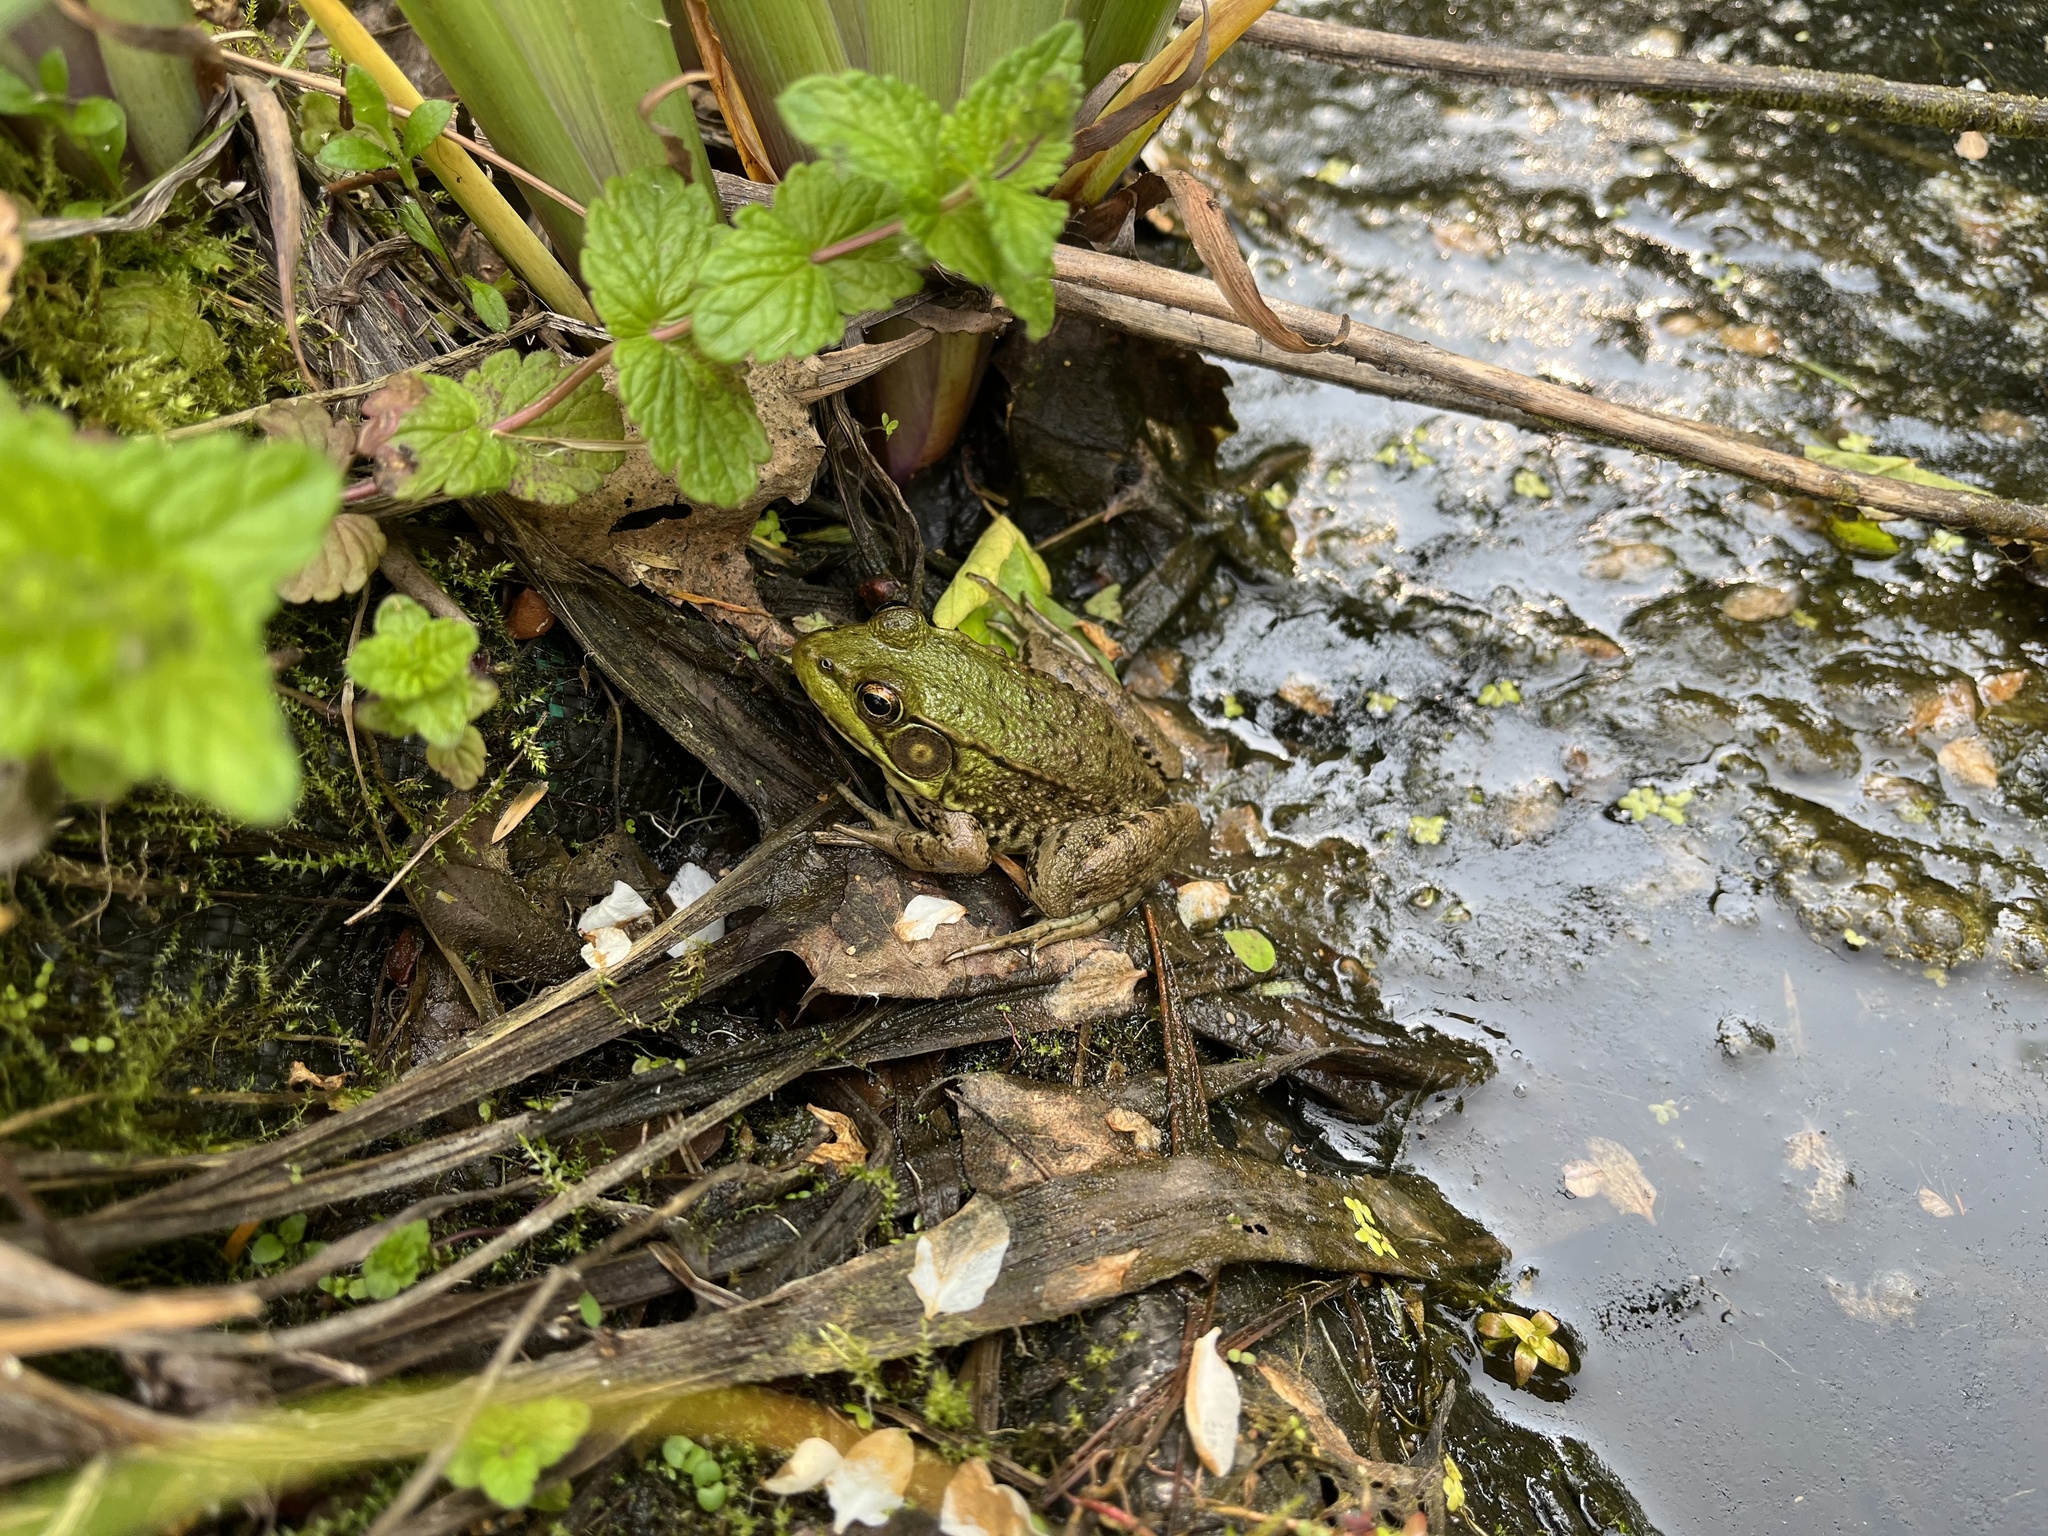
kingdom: Animalia
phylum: Chordata
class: Amphibia
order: Anura
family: Ranidae
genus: Lithobates
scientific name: Lithobates clamitans
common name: Green frog
